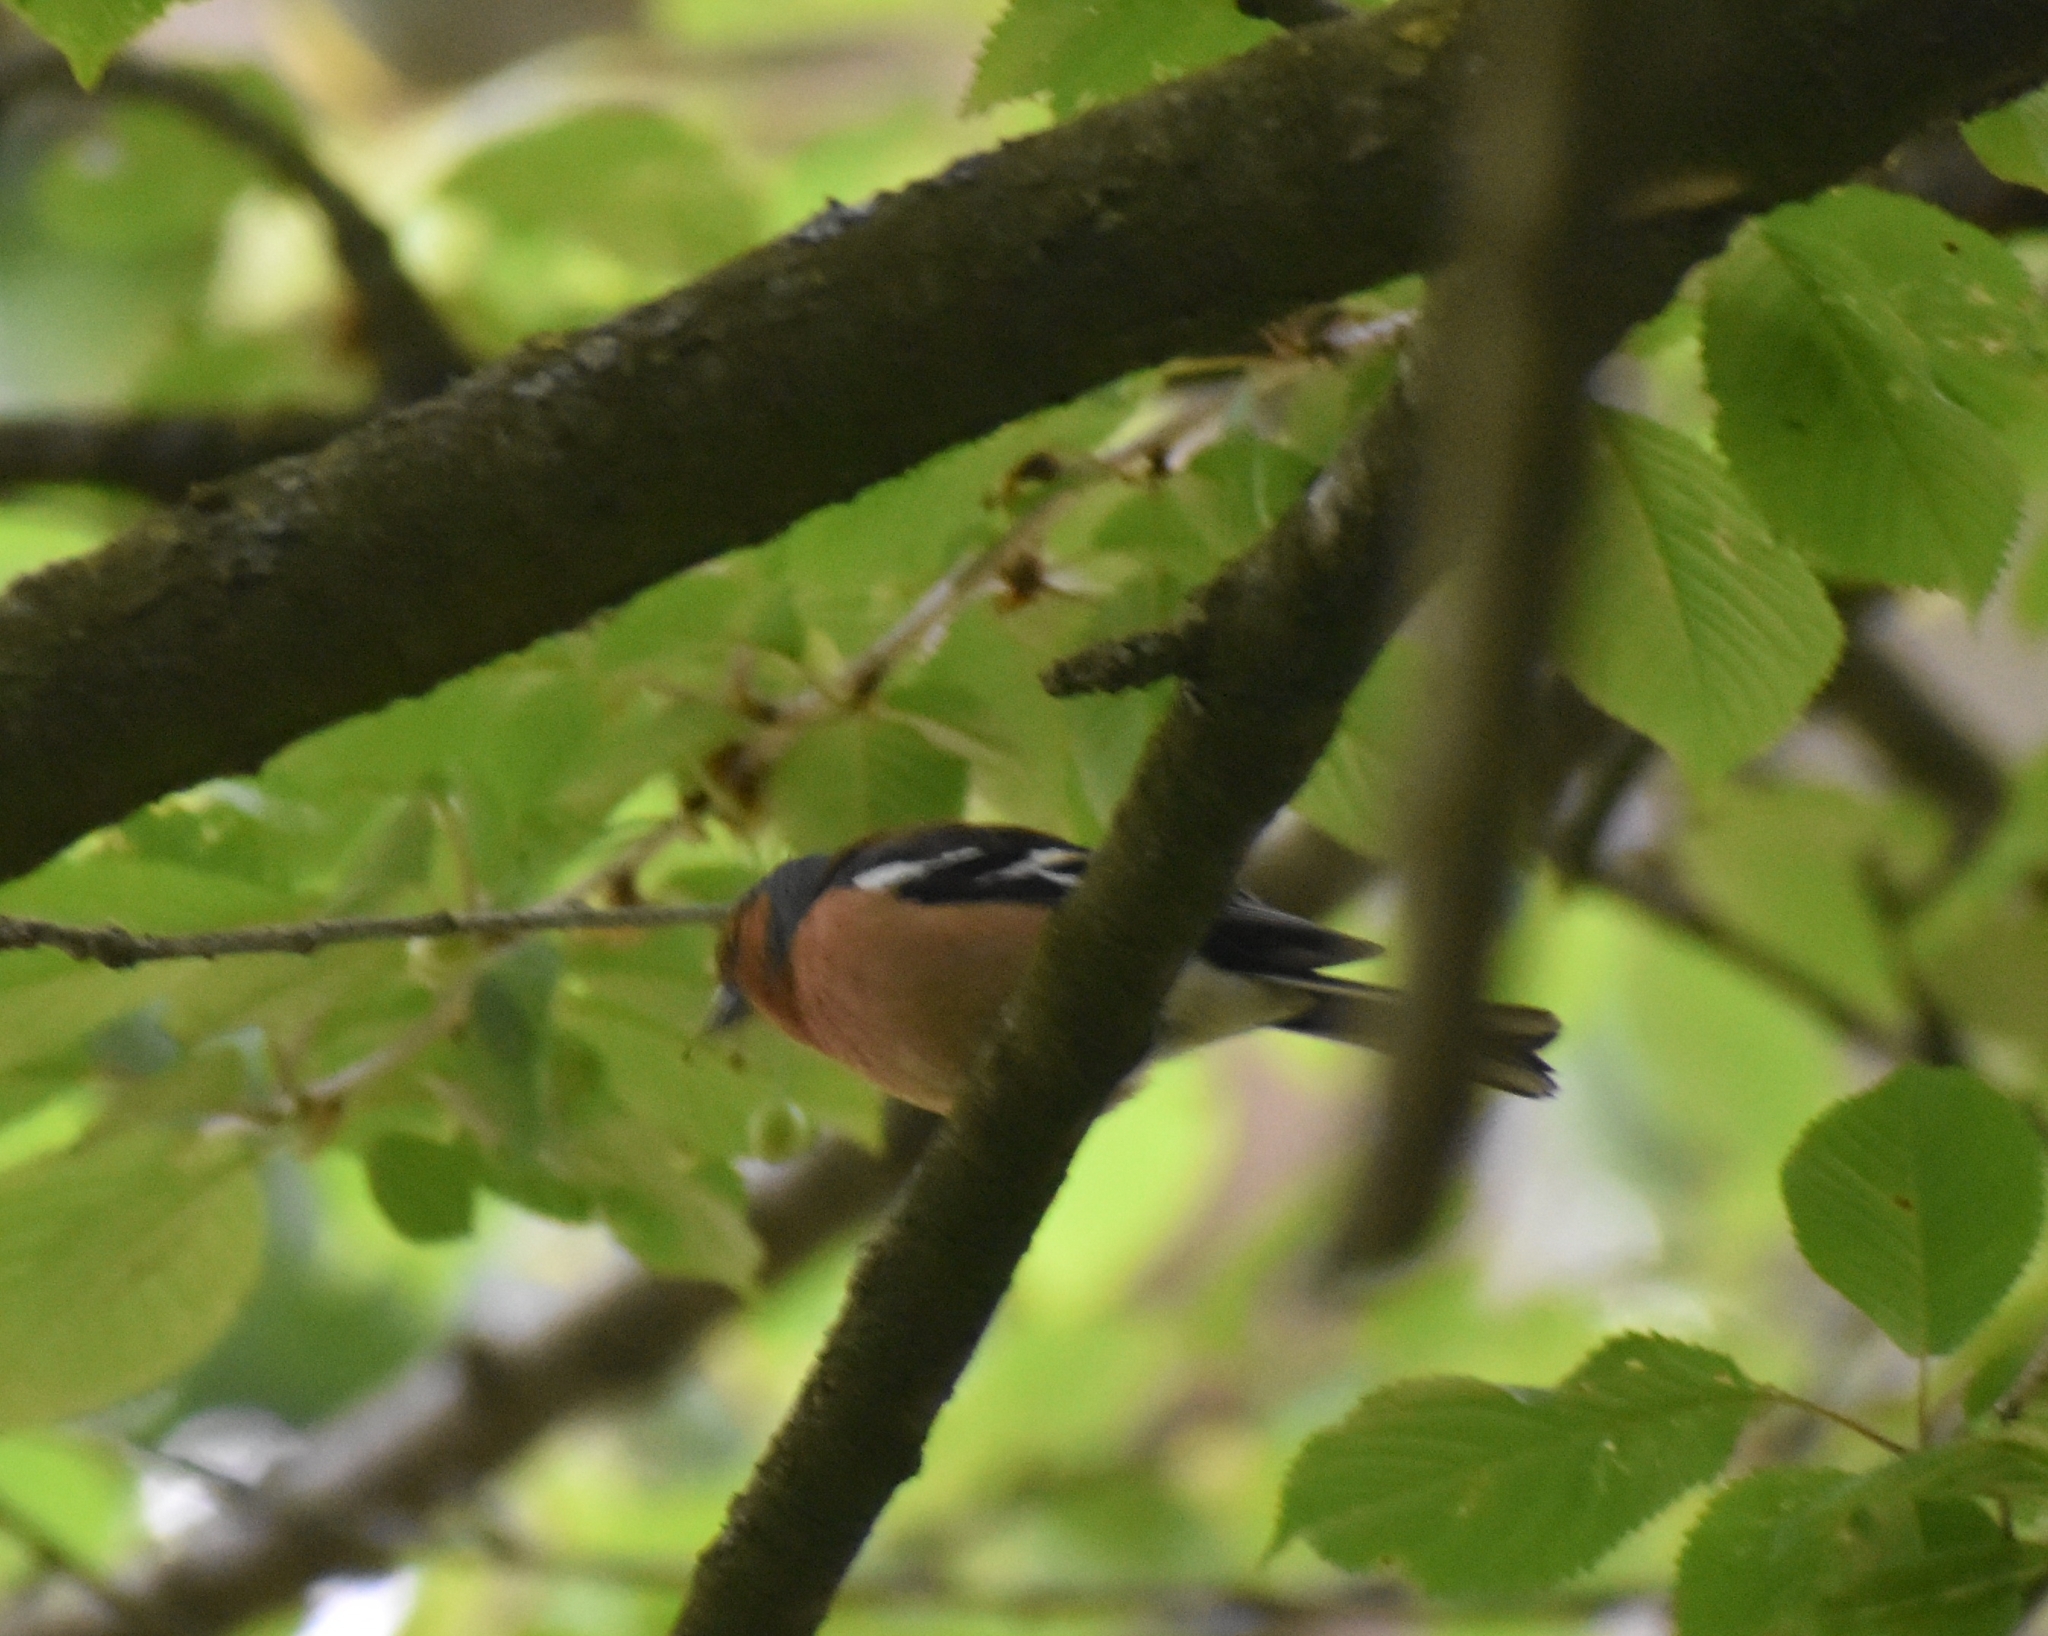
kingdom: Animalia
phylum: Chordata
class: Aves
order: Passeriformes
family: Fringillidae
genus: Fringilla
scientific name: Fringilla coelebs
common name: Common chaffinch
